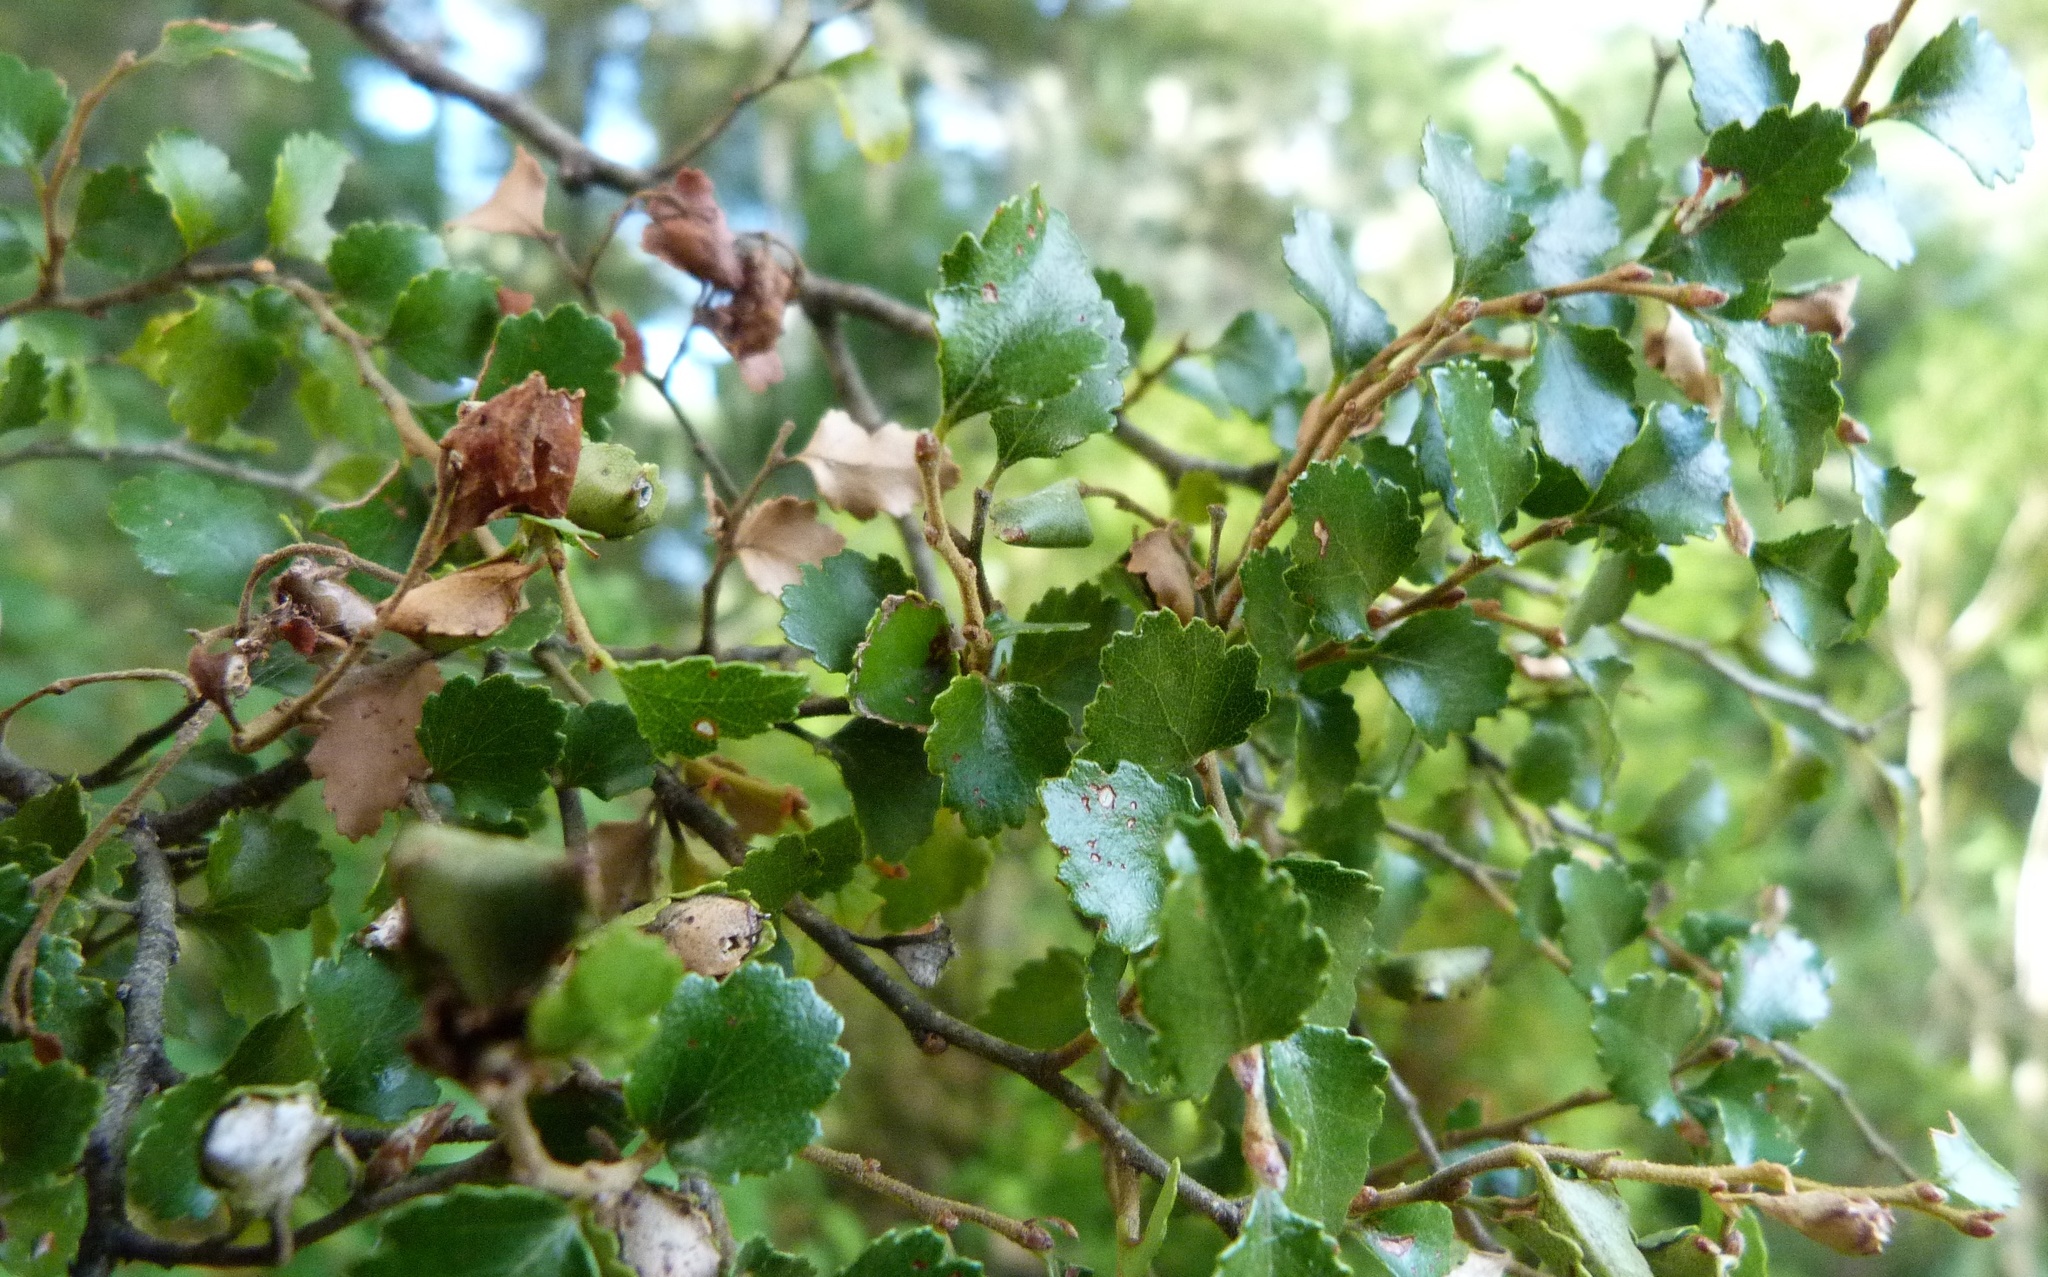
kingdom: Plantae
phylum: Tracheophyta
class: Magnoliopsida
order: Fagales
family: Nothofagaceae
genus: Nothofagus
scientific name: Nothofagus menziesii
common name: Silver beech
